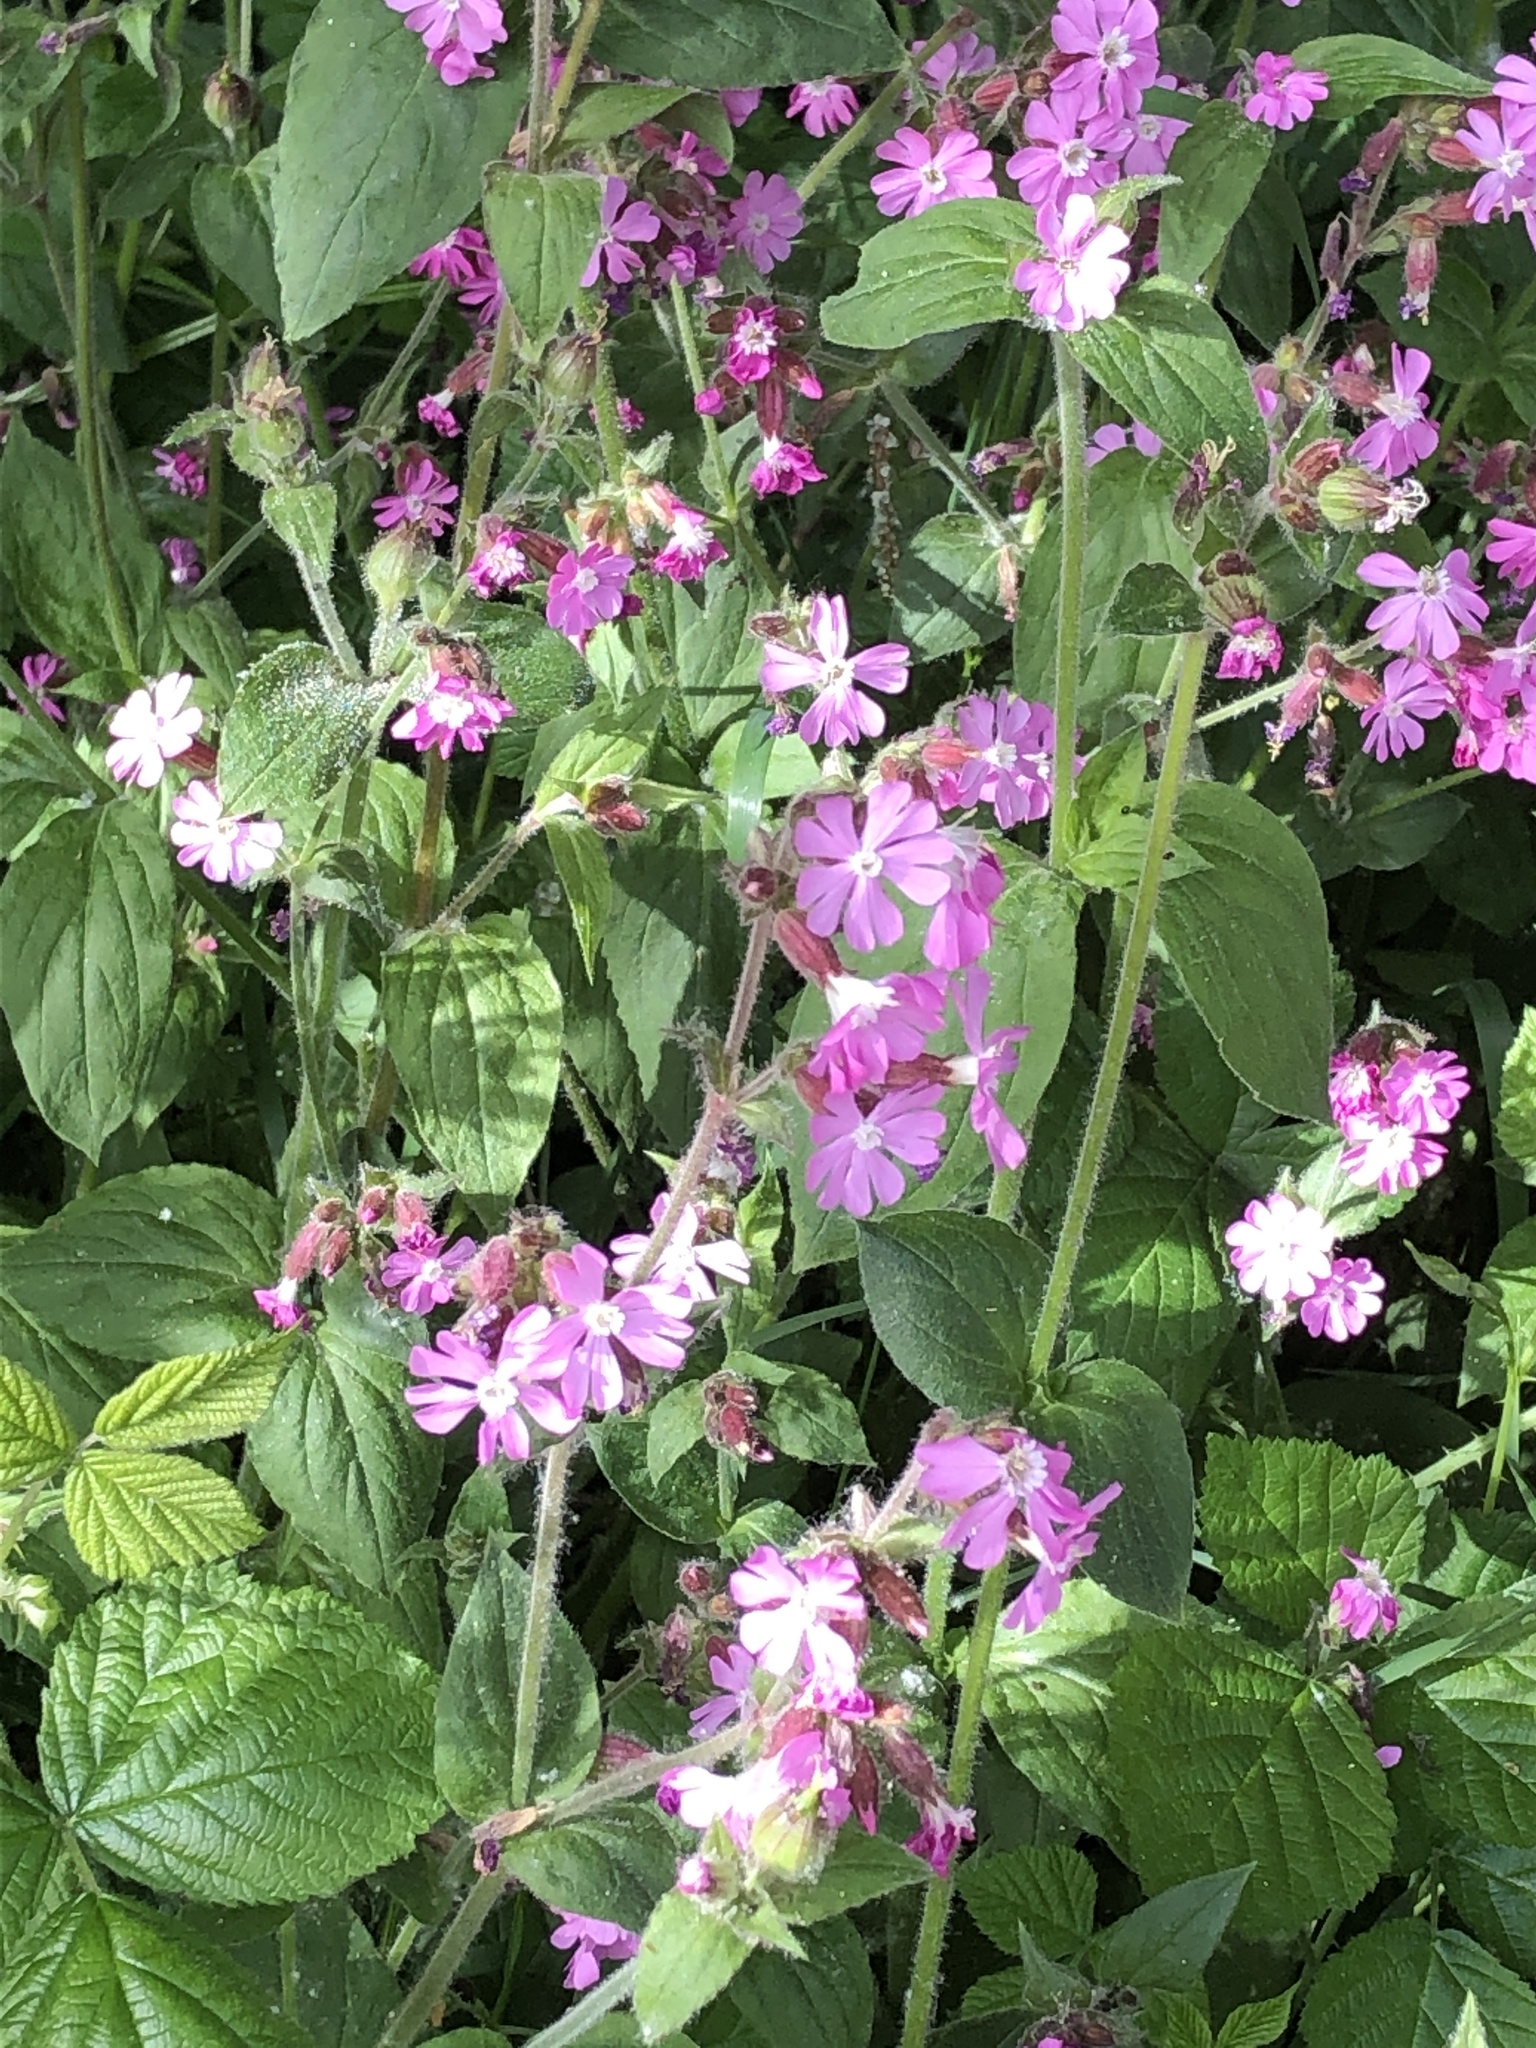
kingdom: Plantae
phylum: Tracheophyta
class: Magnoliopsida
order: Caryophyllales
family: Caryophyllaceae
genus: Silene
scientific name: Silene dioica
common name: Red campion
